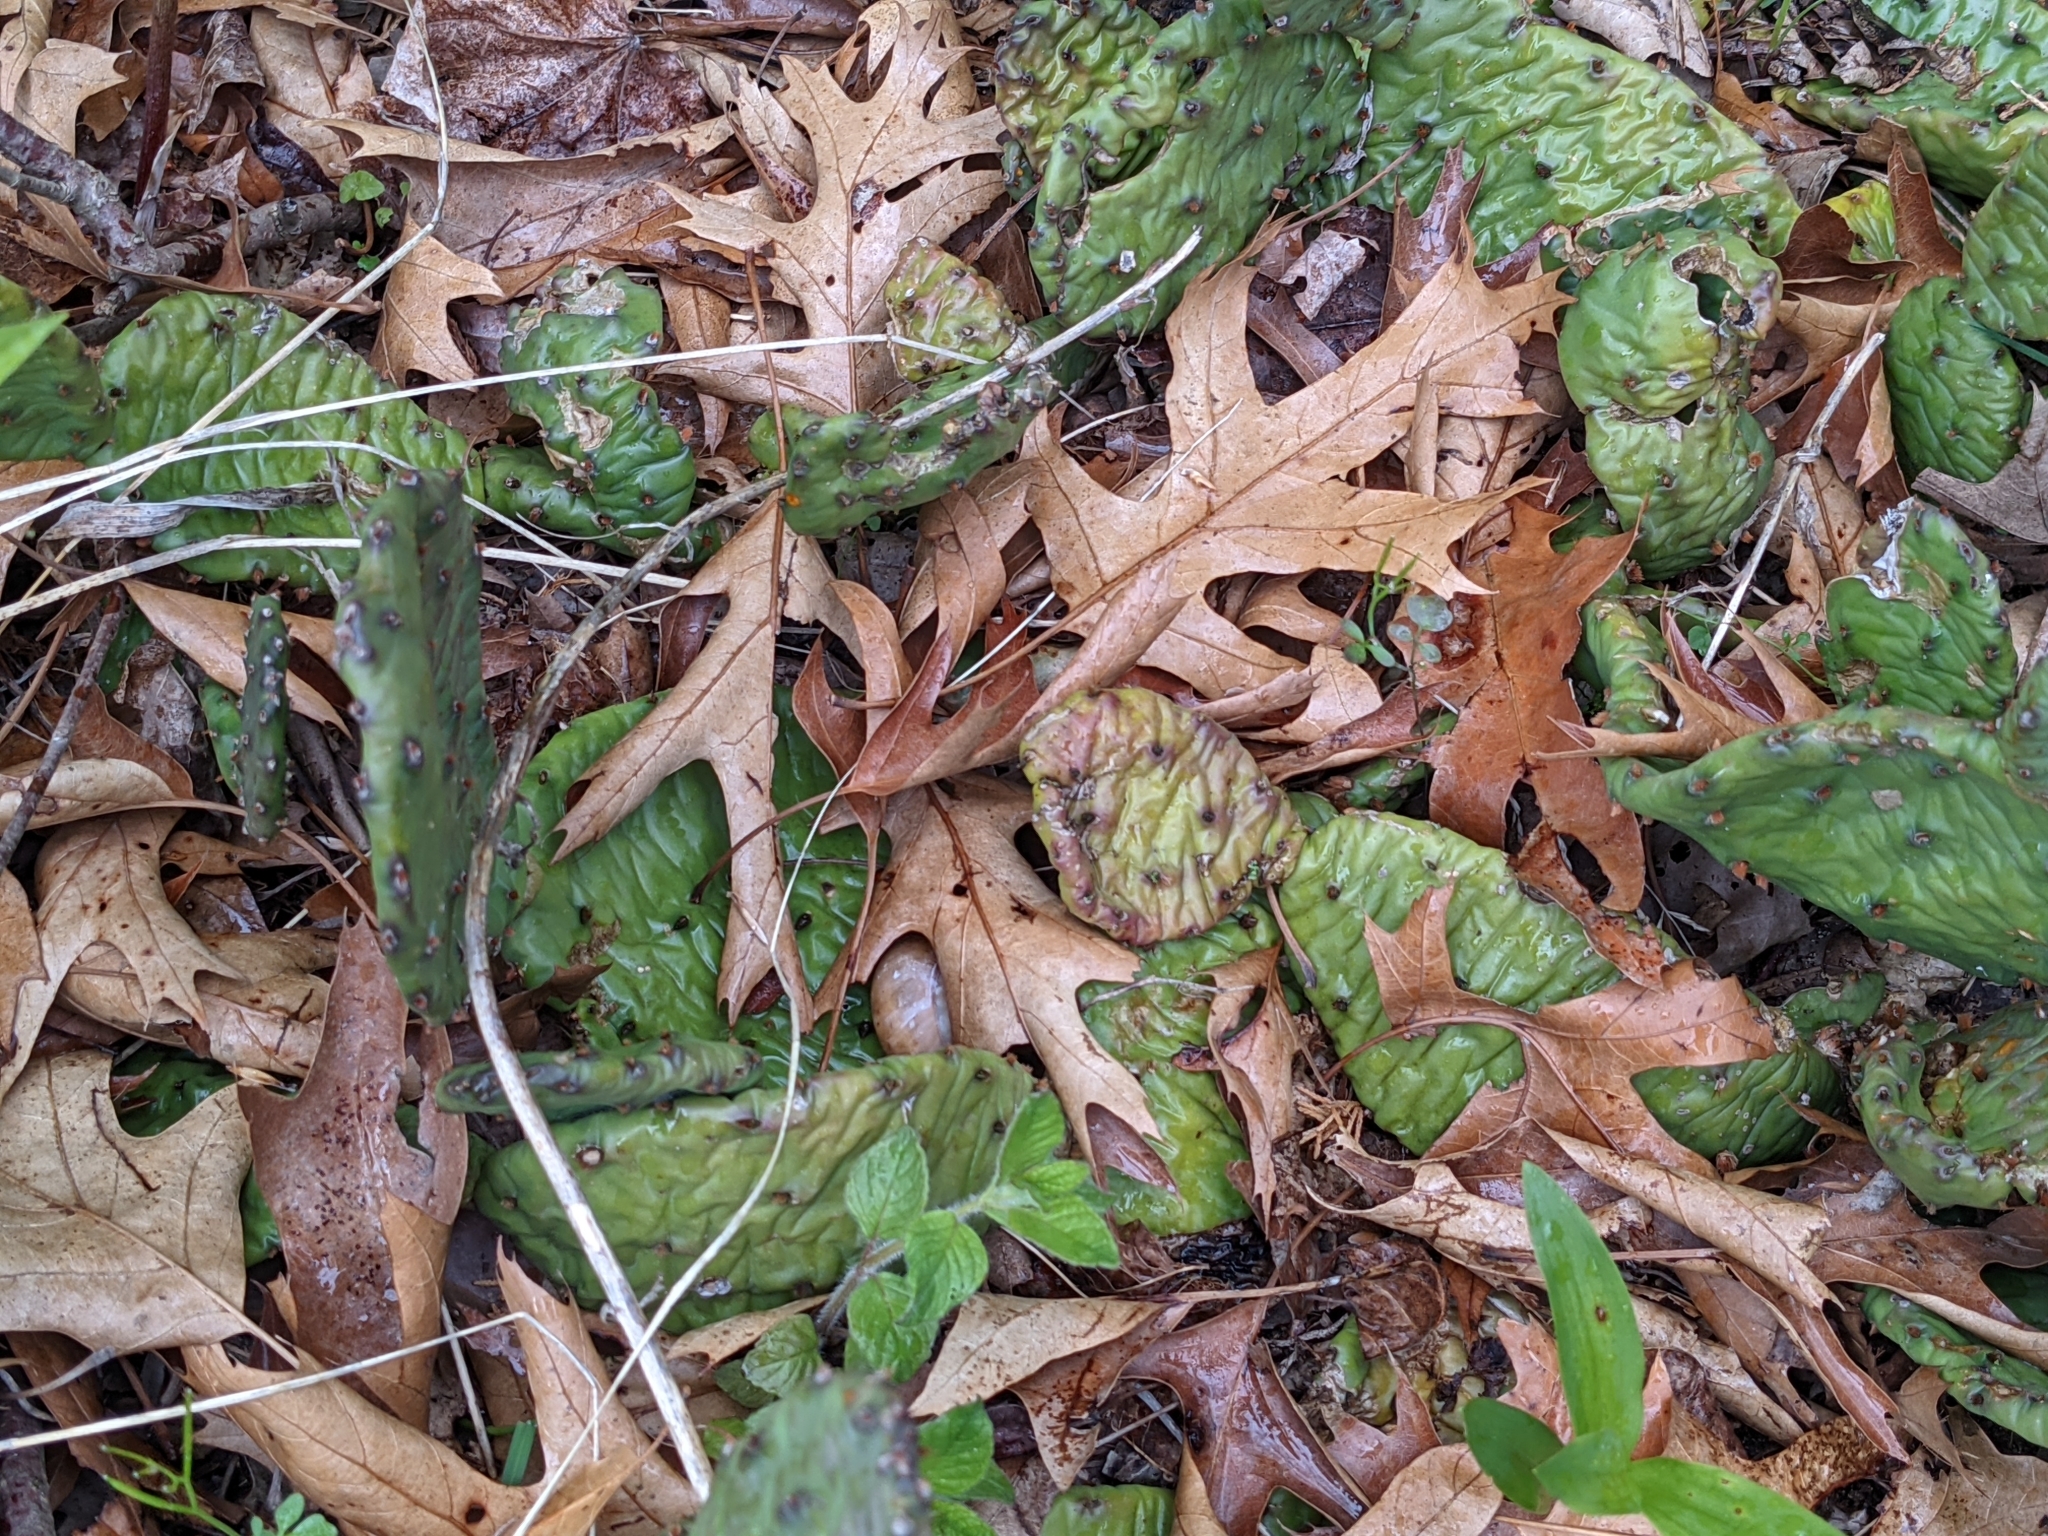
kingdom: Plantae
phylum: Tracheophyta
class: Magnoliopsida
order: Caryophyllales
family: Cactaceae
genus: Opuntia
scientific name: Opuntia humifusa
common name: Eastern prickly-pear
